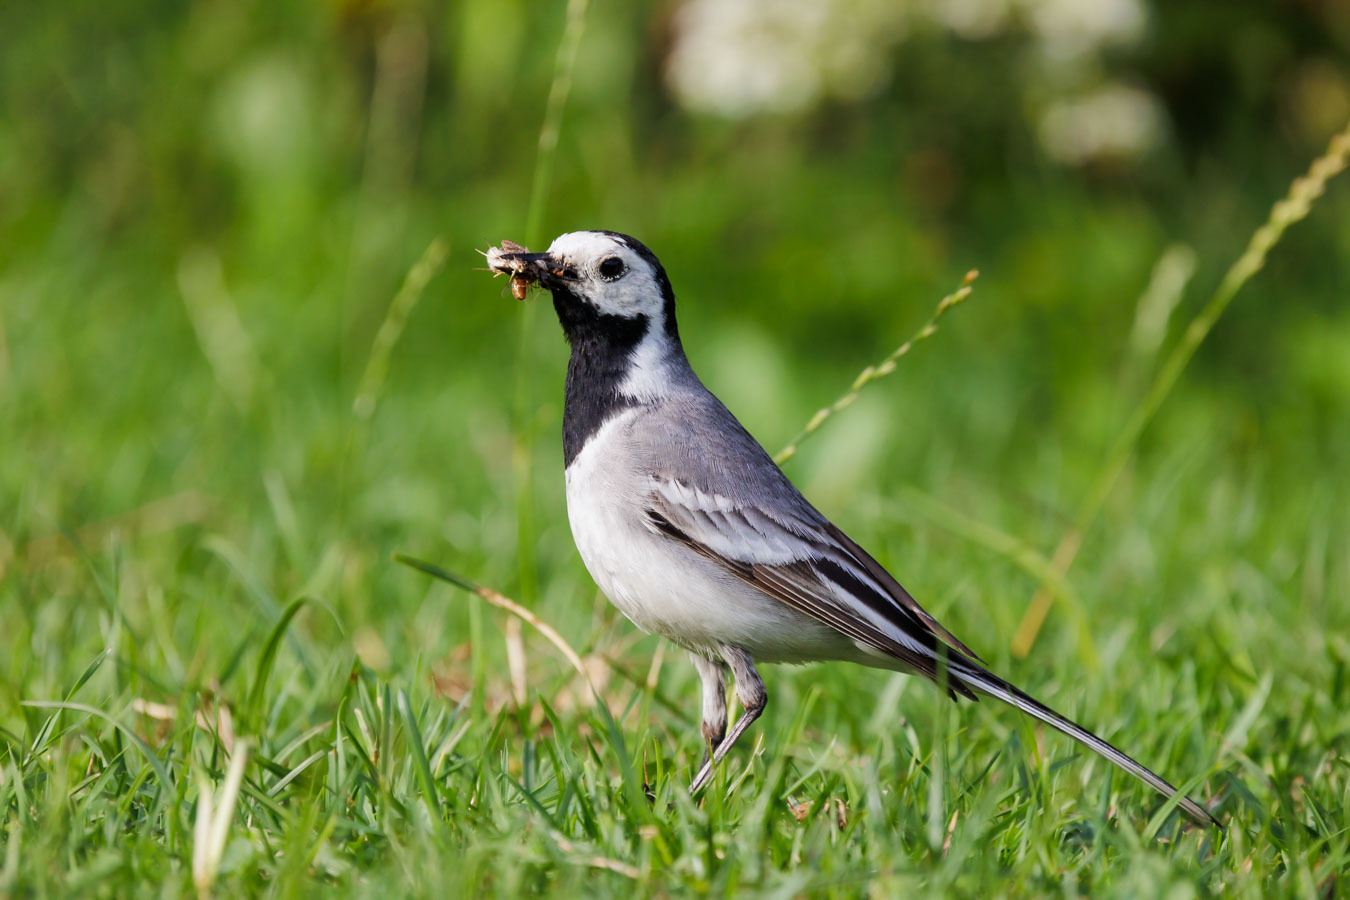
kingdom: Animalia
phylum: Chordata
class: Aves
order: Passeriformes
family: Motacillidae
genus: Motacilla
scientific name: Motacilla alba
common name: White wagtail
